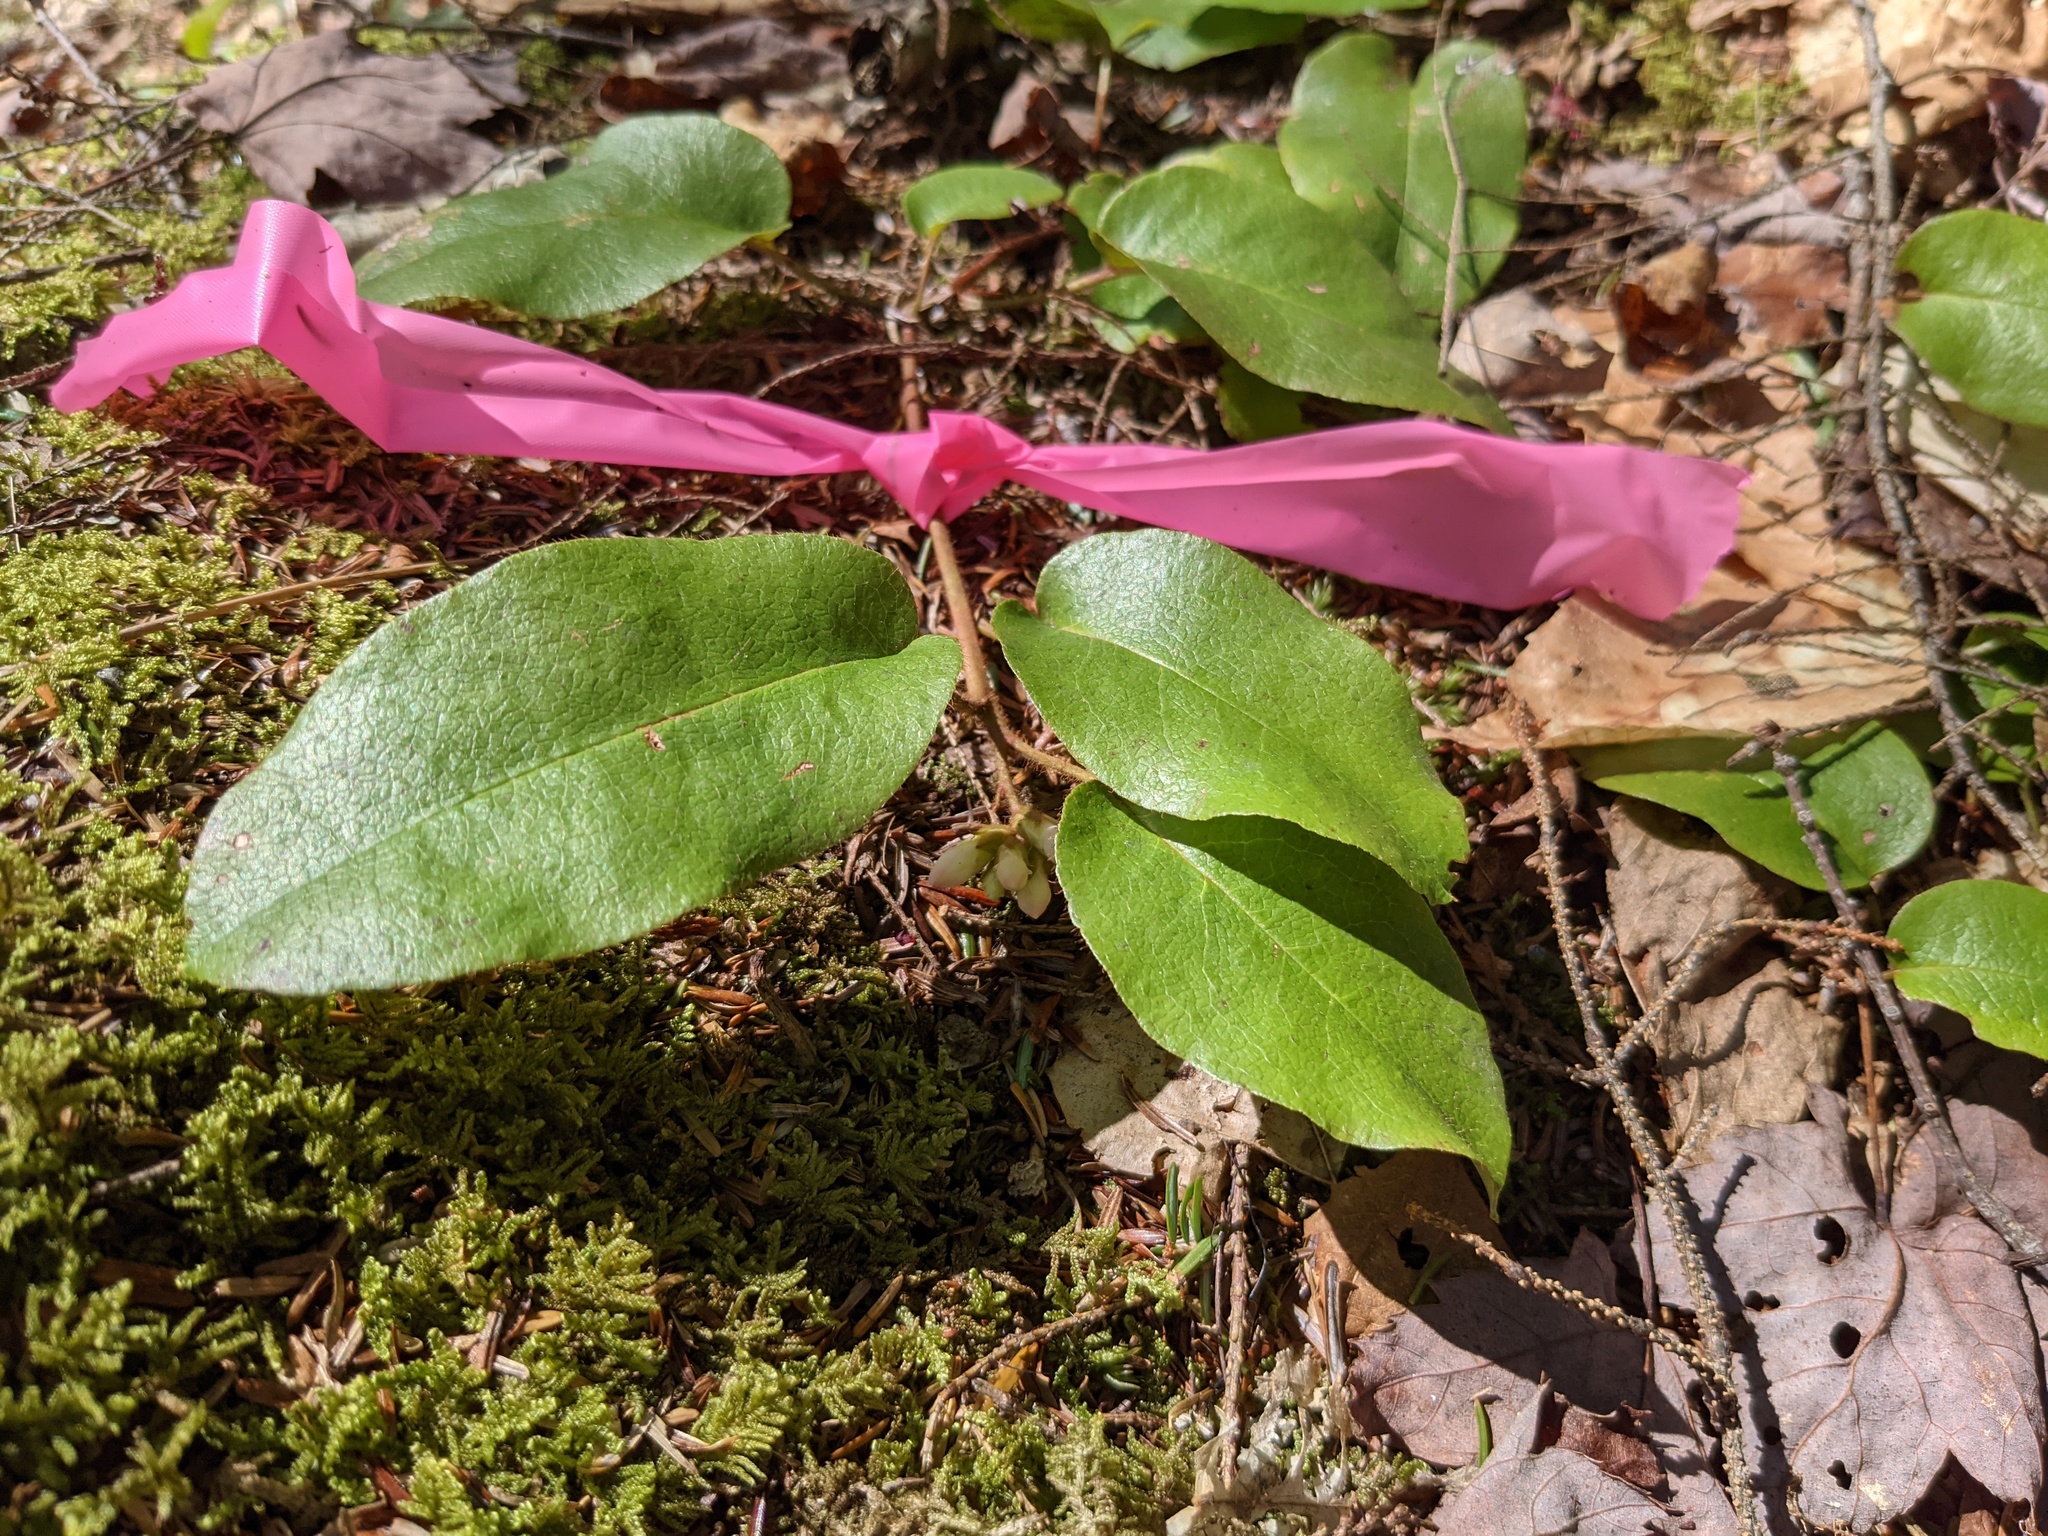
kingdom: Plantae
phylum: Tracheophyta
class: Magnoliopsida
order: Ericales
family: Ericaceae
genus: Epigaea
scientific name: Epigaea repens
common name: Gravelroot
